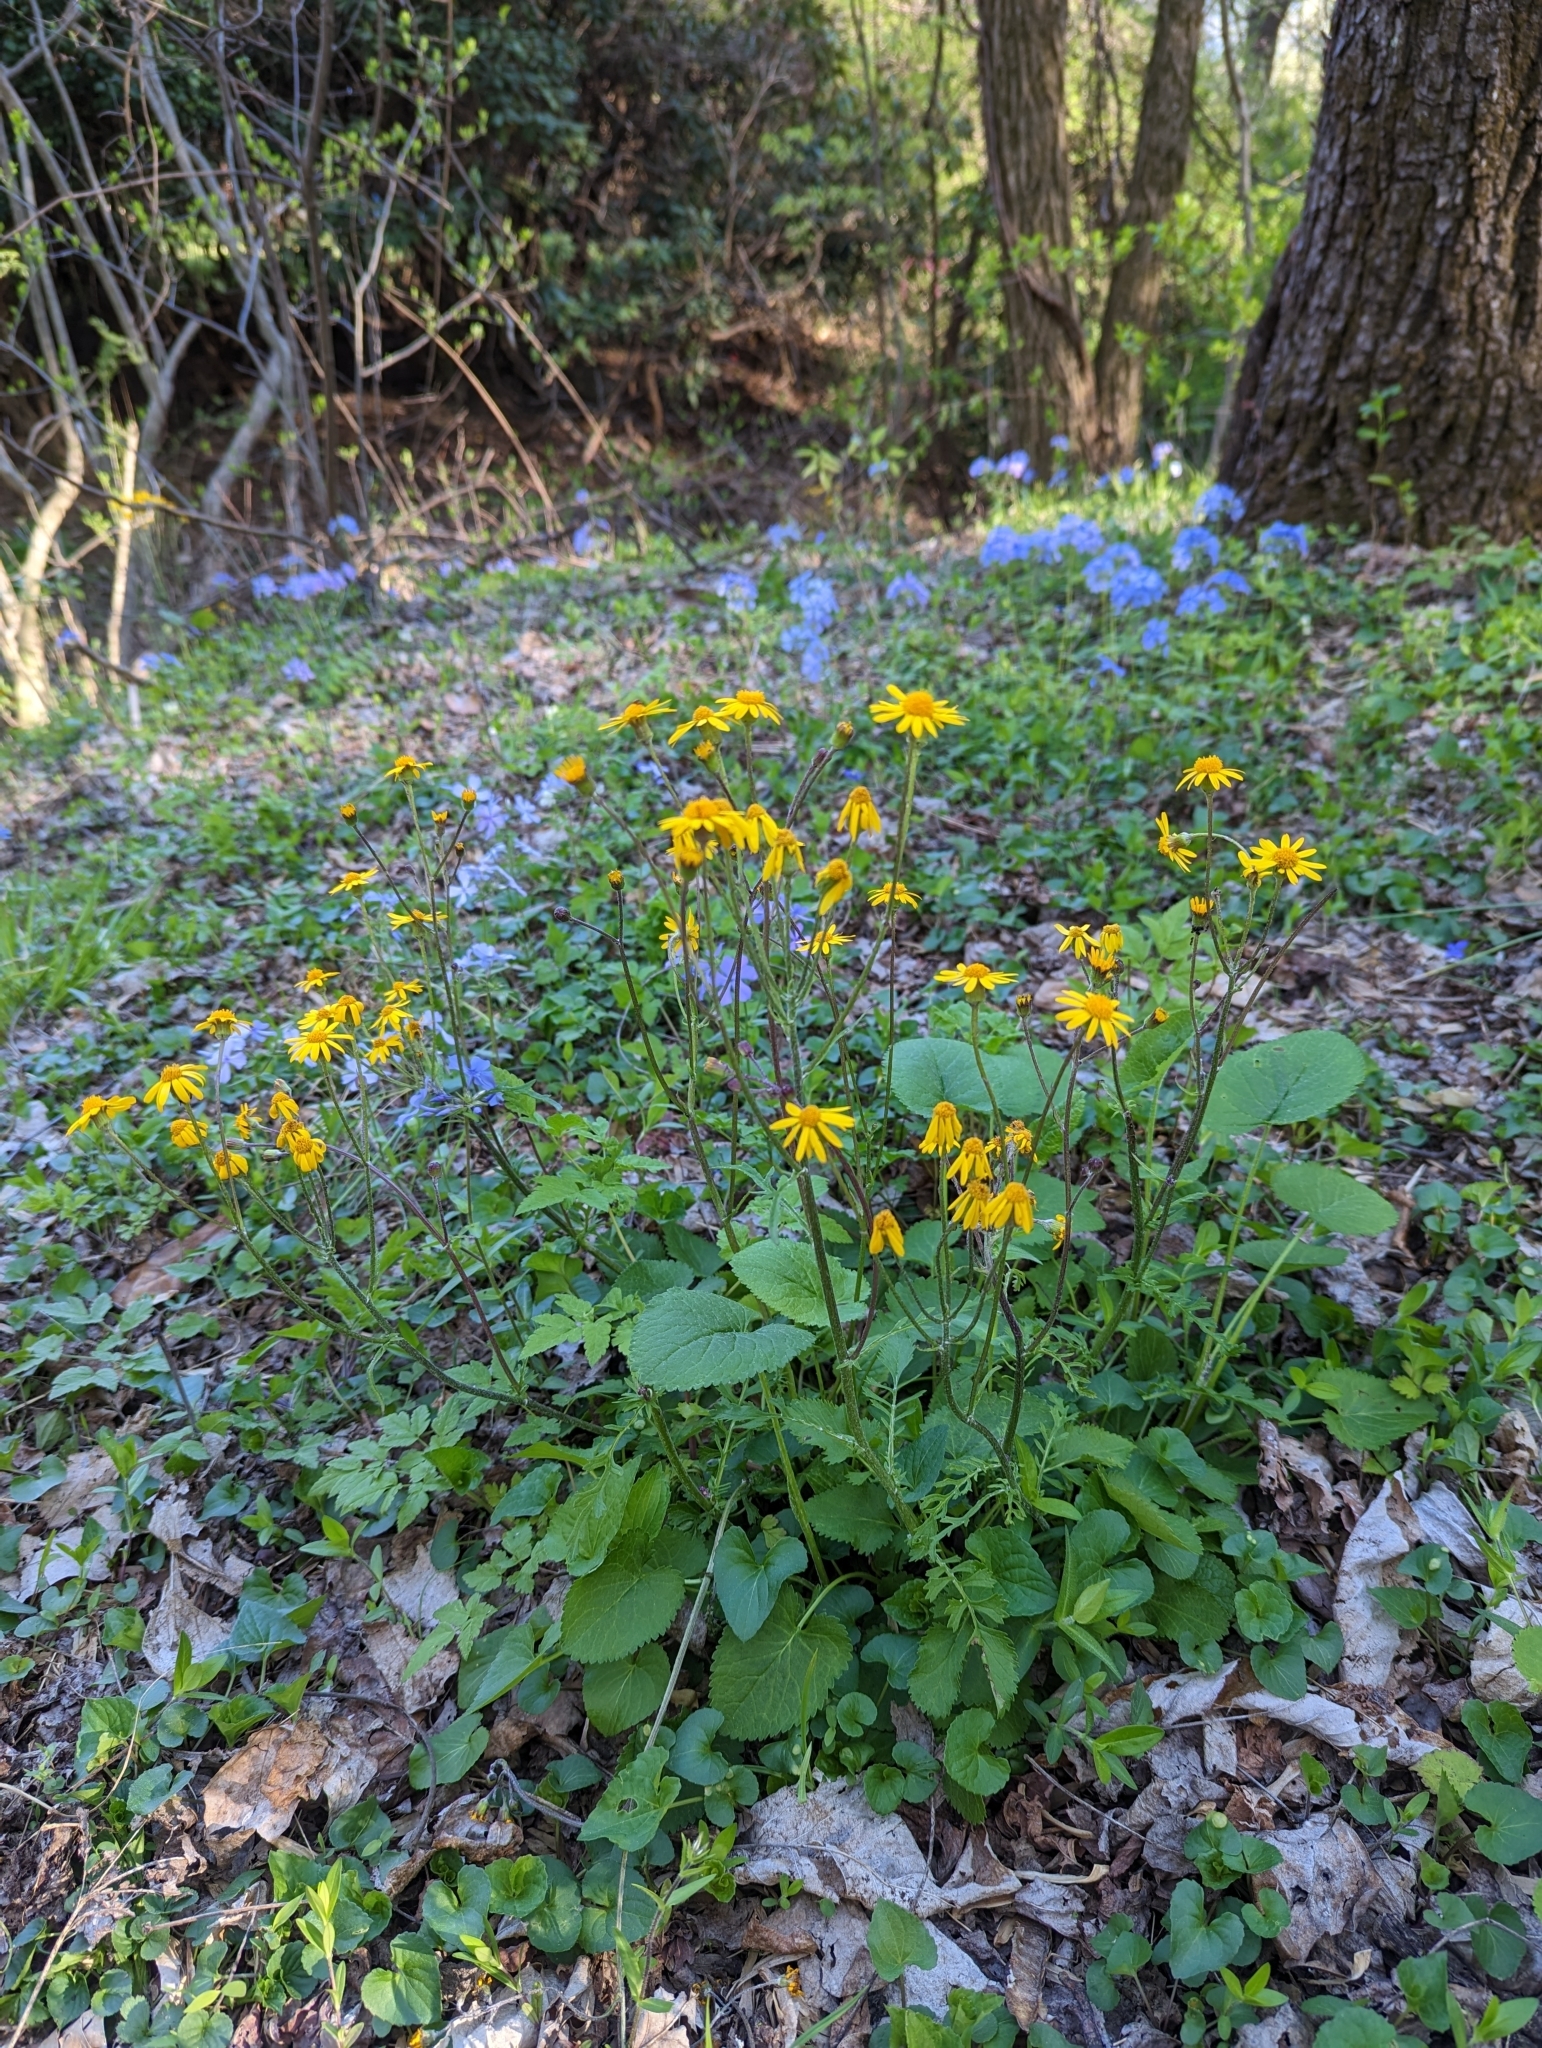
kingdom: Plantae
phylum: Tracheophyta
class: Magnoliopsida
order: Asterales
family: Asteraceae
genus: Packera
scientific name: Packera aurea
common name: Golden groundsel
